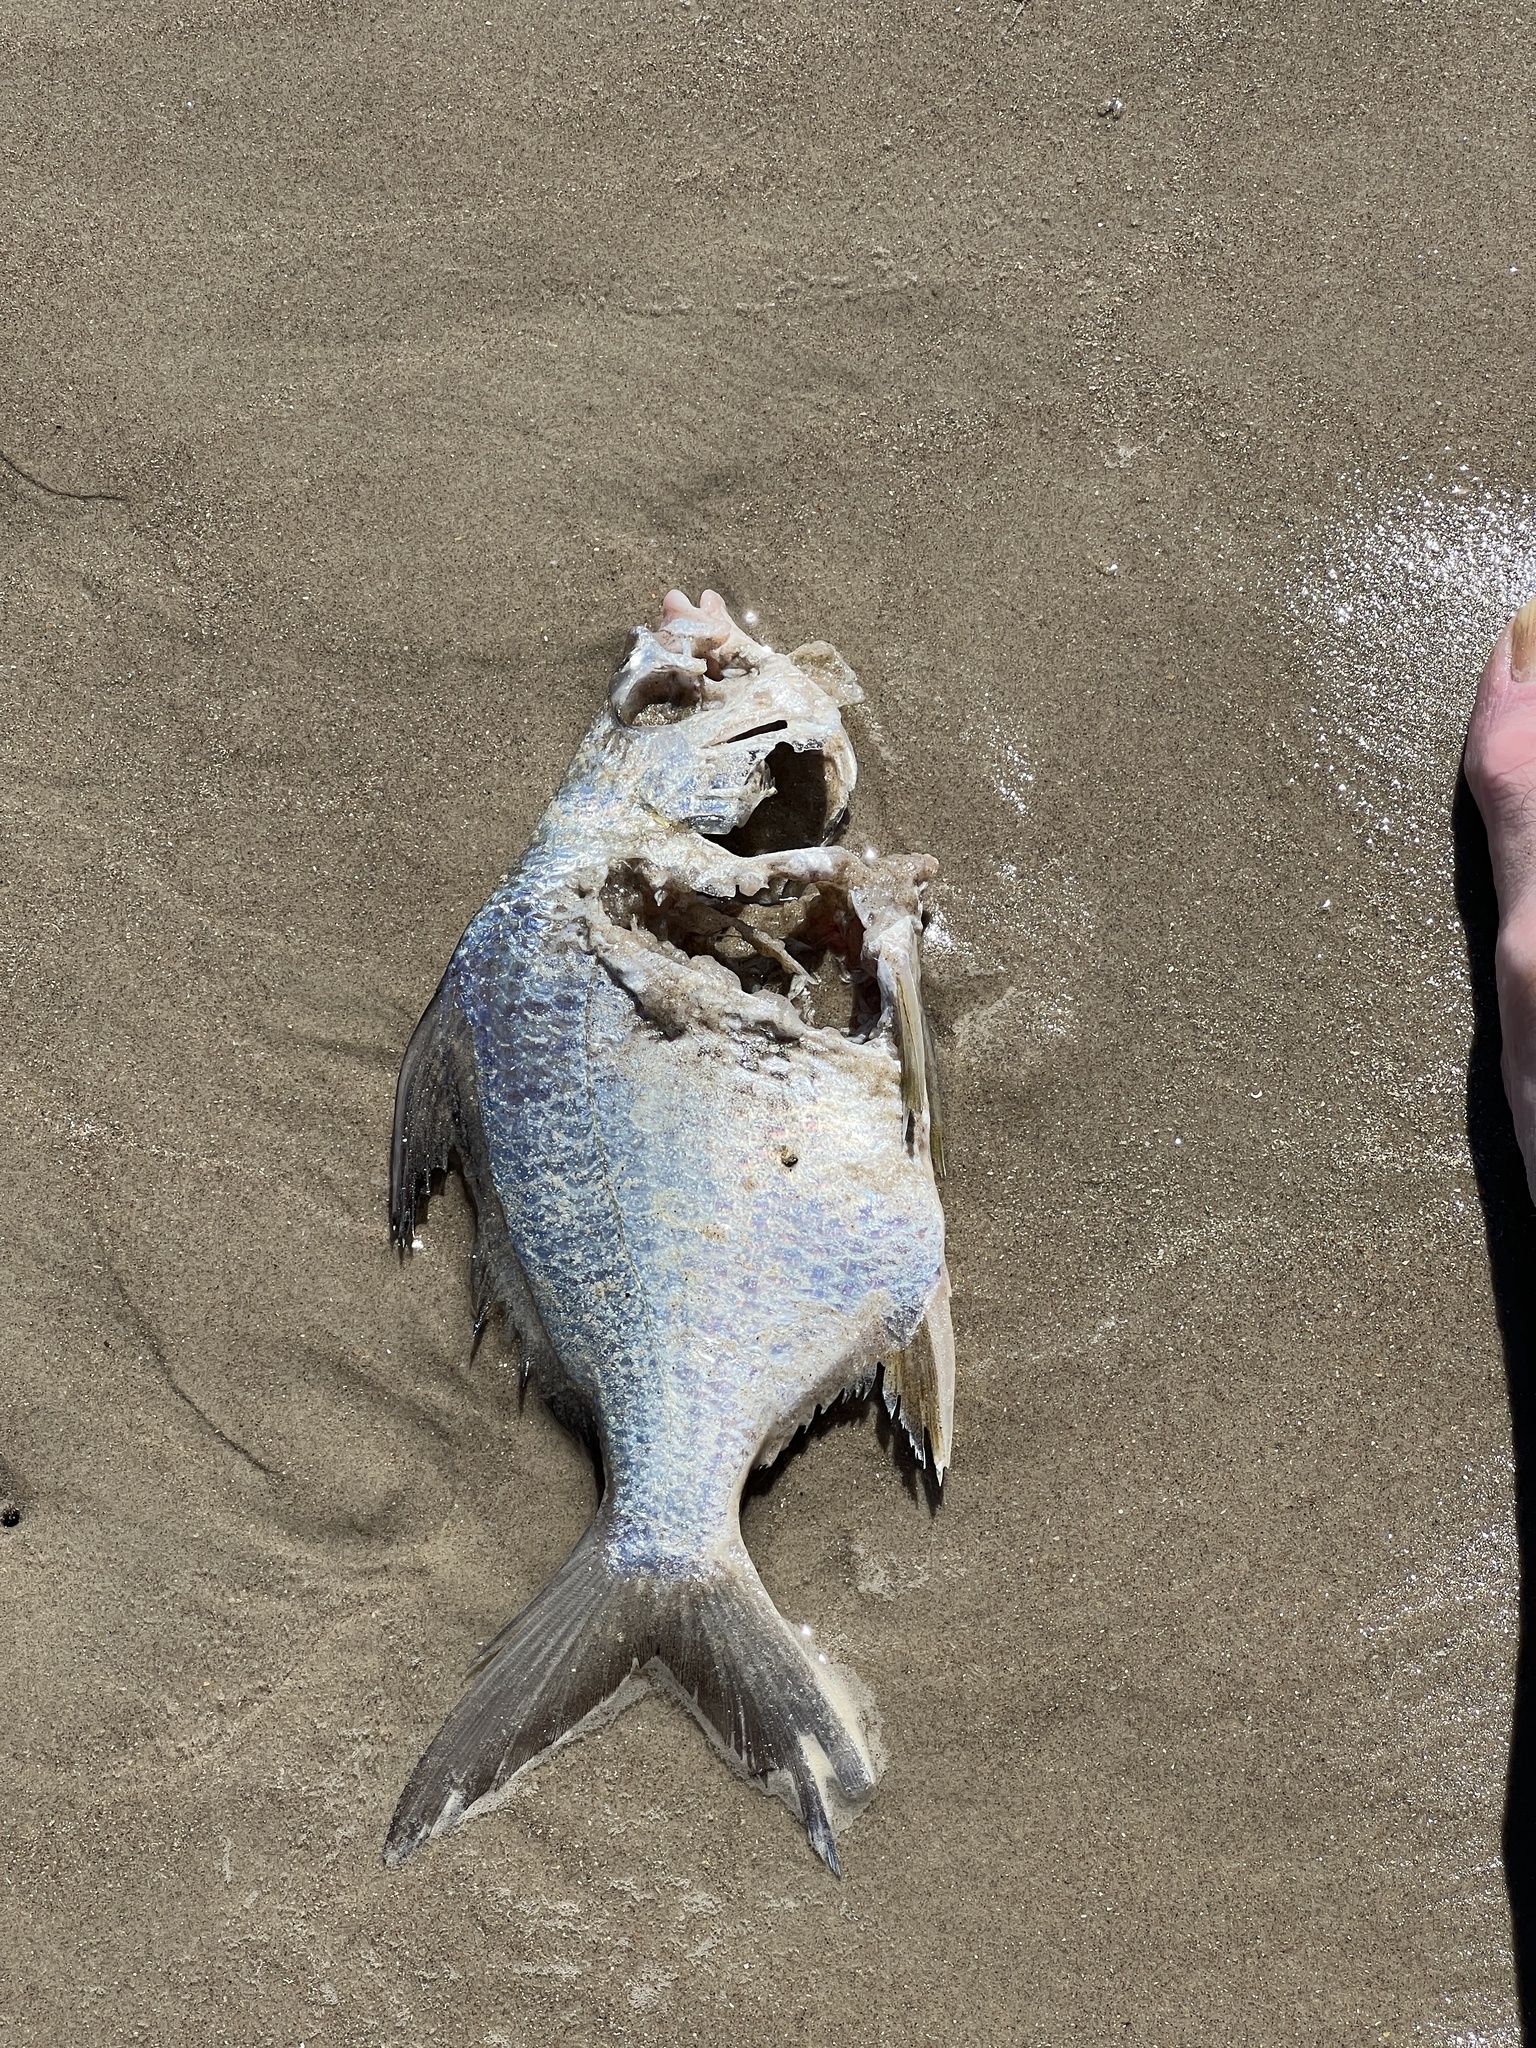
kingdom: Animalia
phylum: Chordata
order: Perciformes
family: Gerreidae
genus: Diapterus
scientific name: Diapterus auratus
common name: Broad shad
